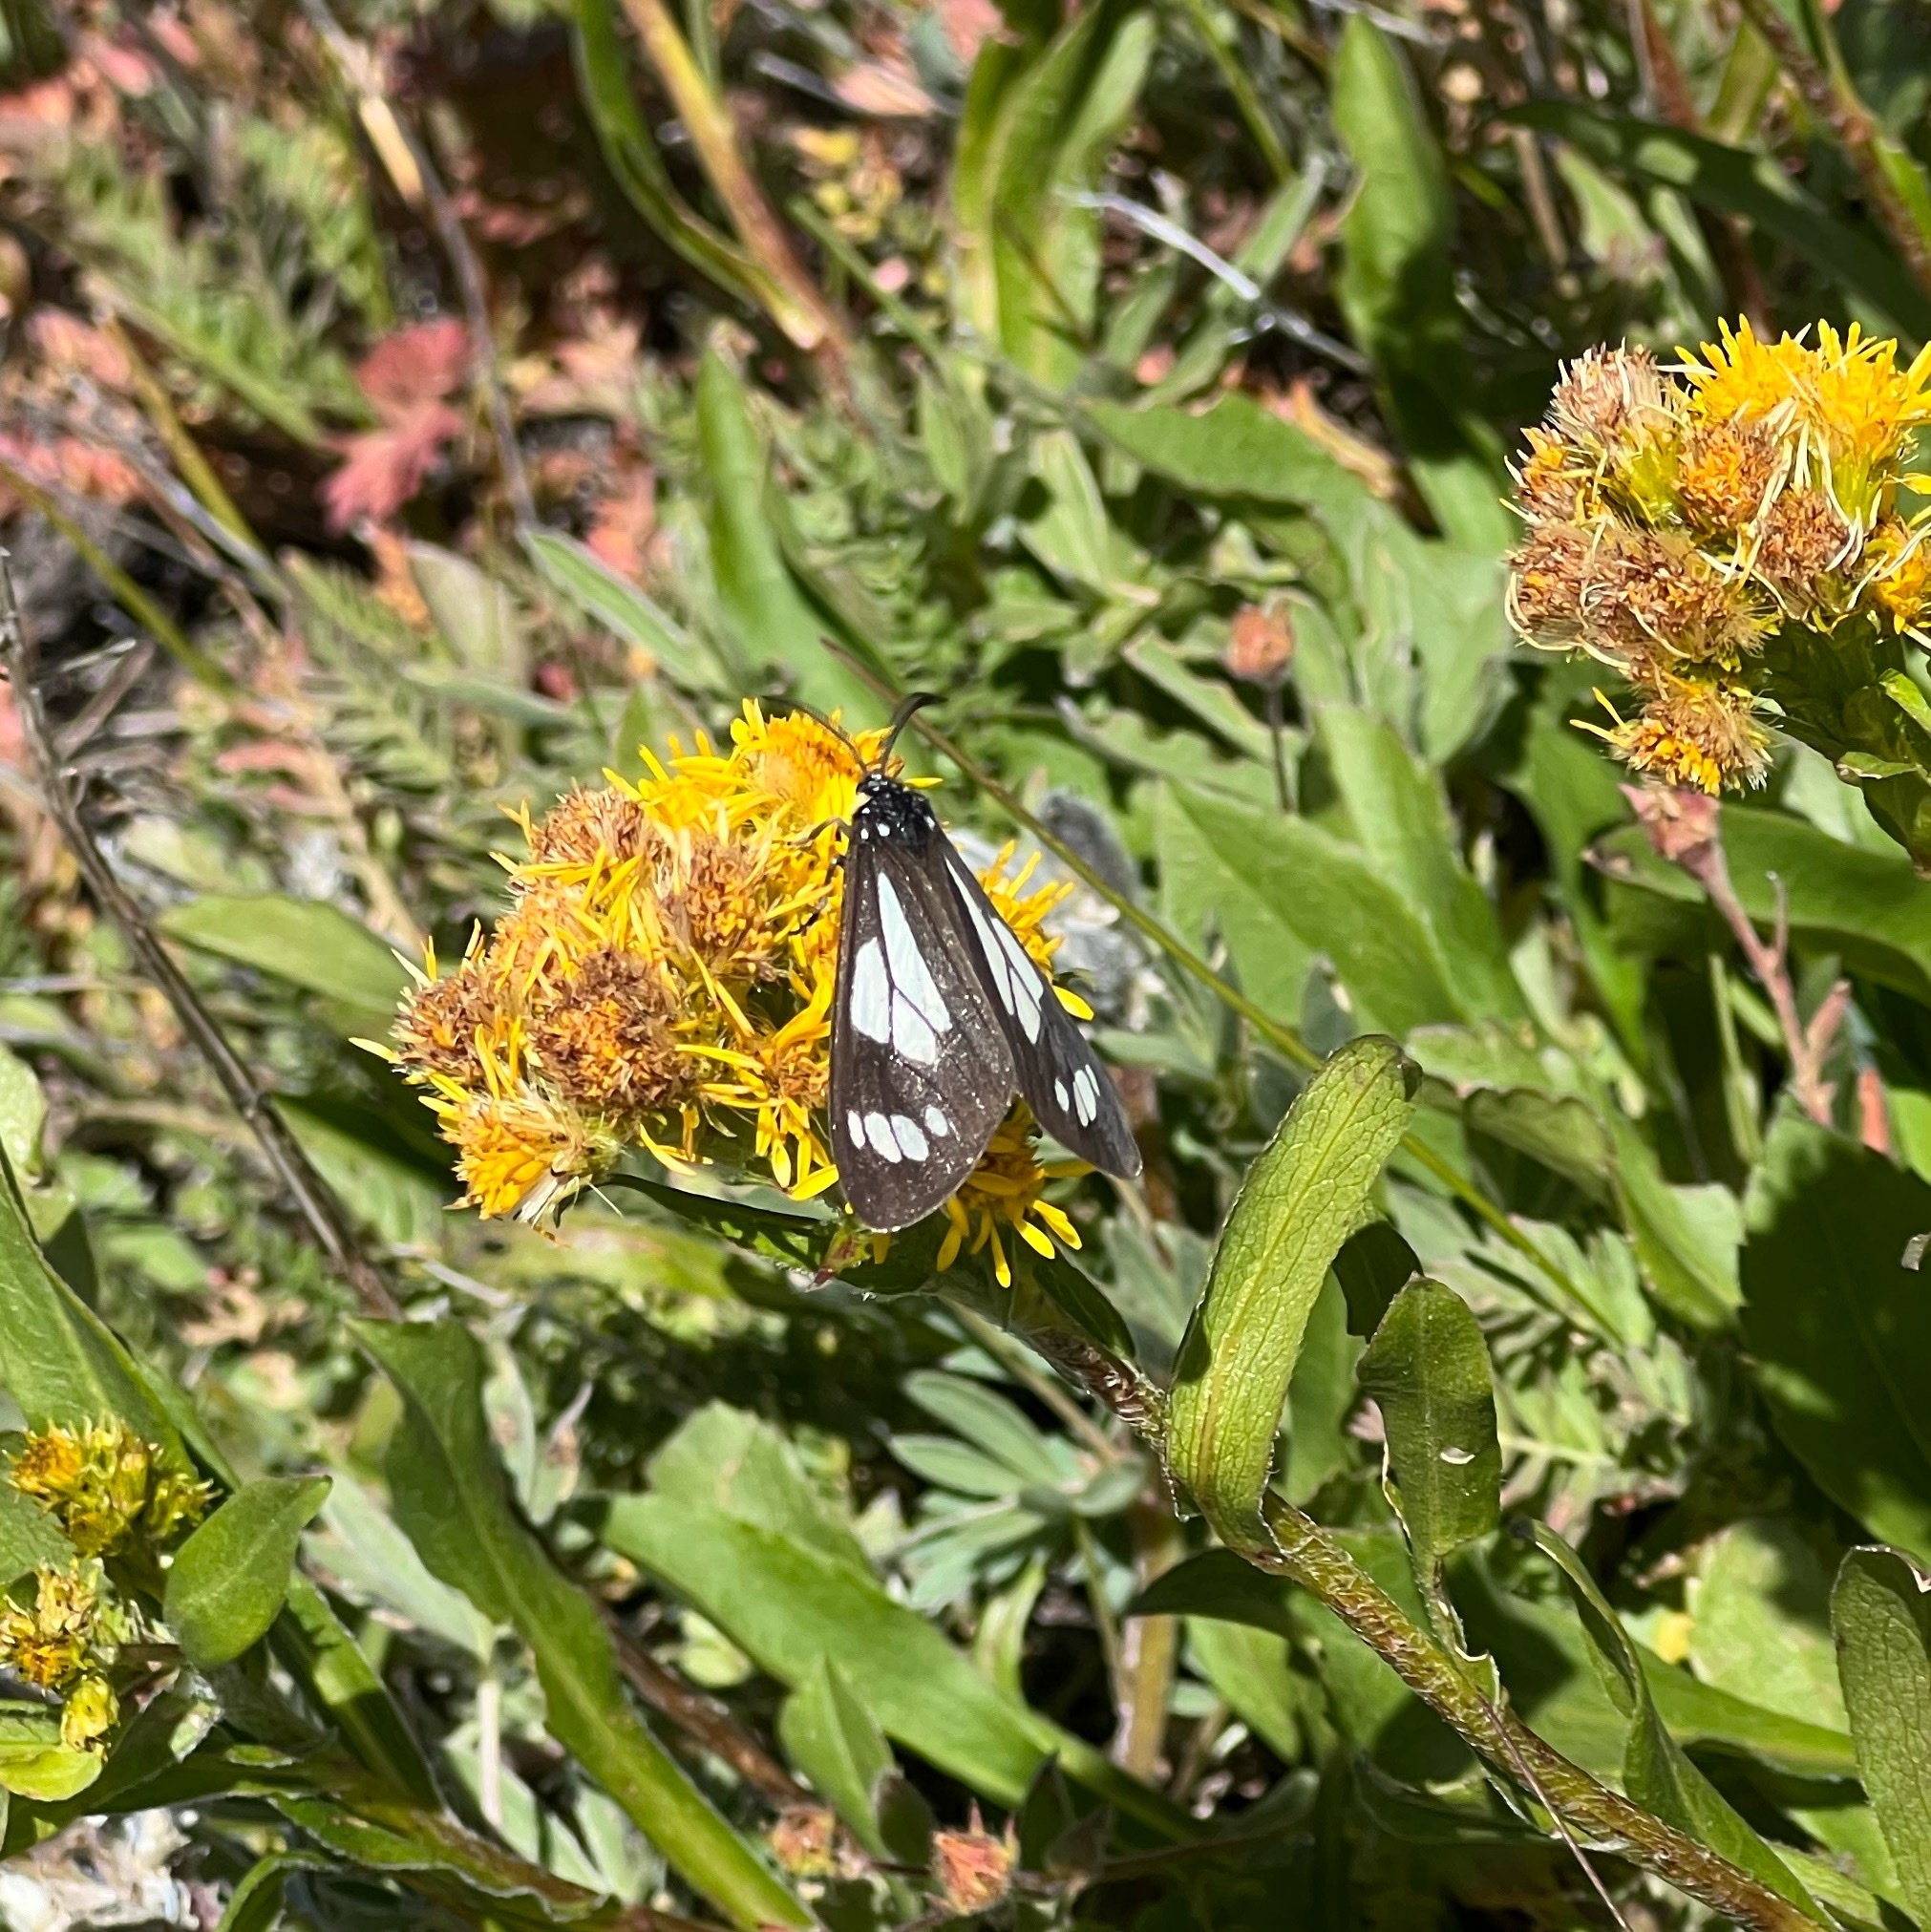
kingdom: Animalia
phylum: Arthropoda
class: Insecta
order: Lepidoptera
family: Erebidae
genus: Gnophaela
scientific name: Gnophaela vermiculata
